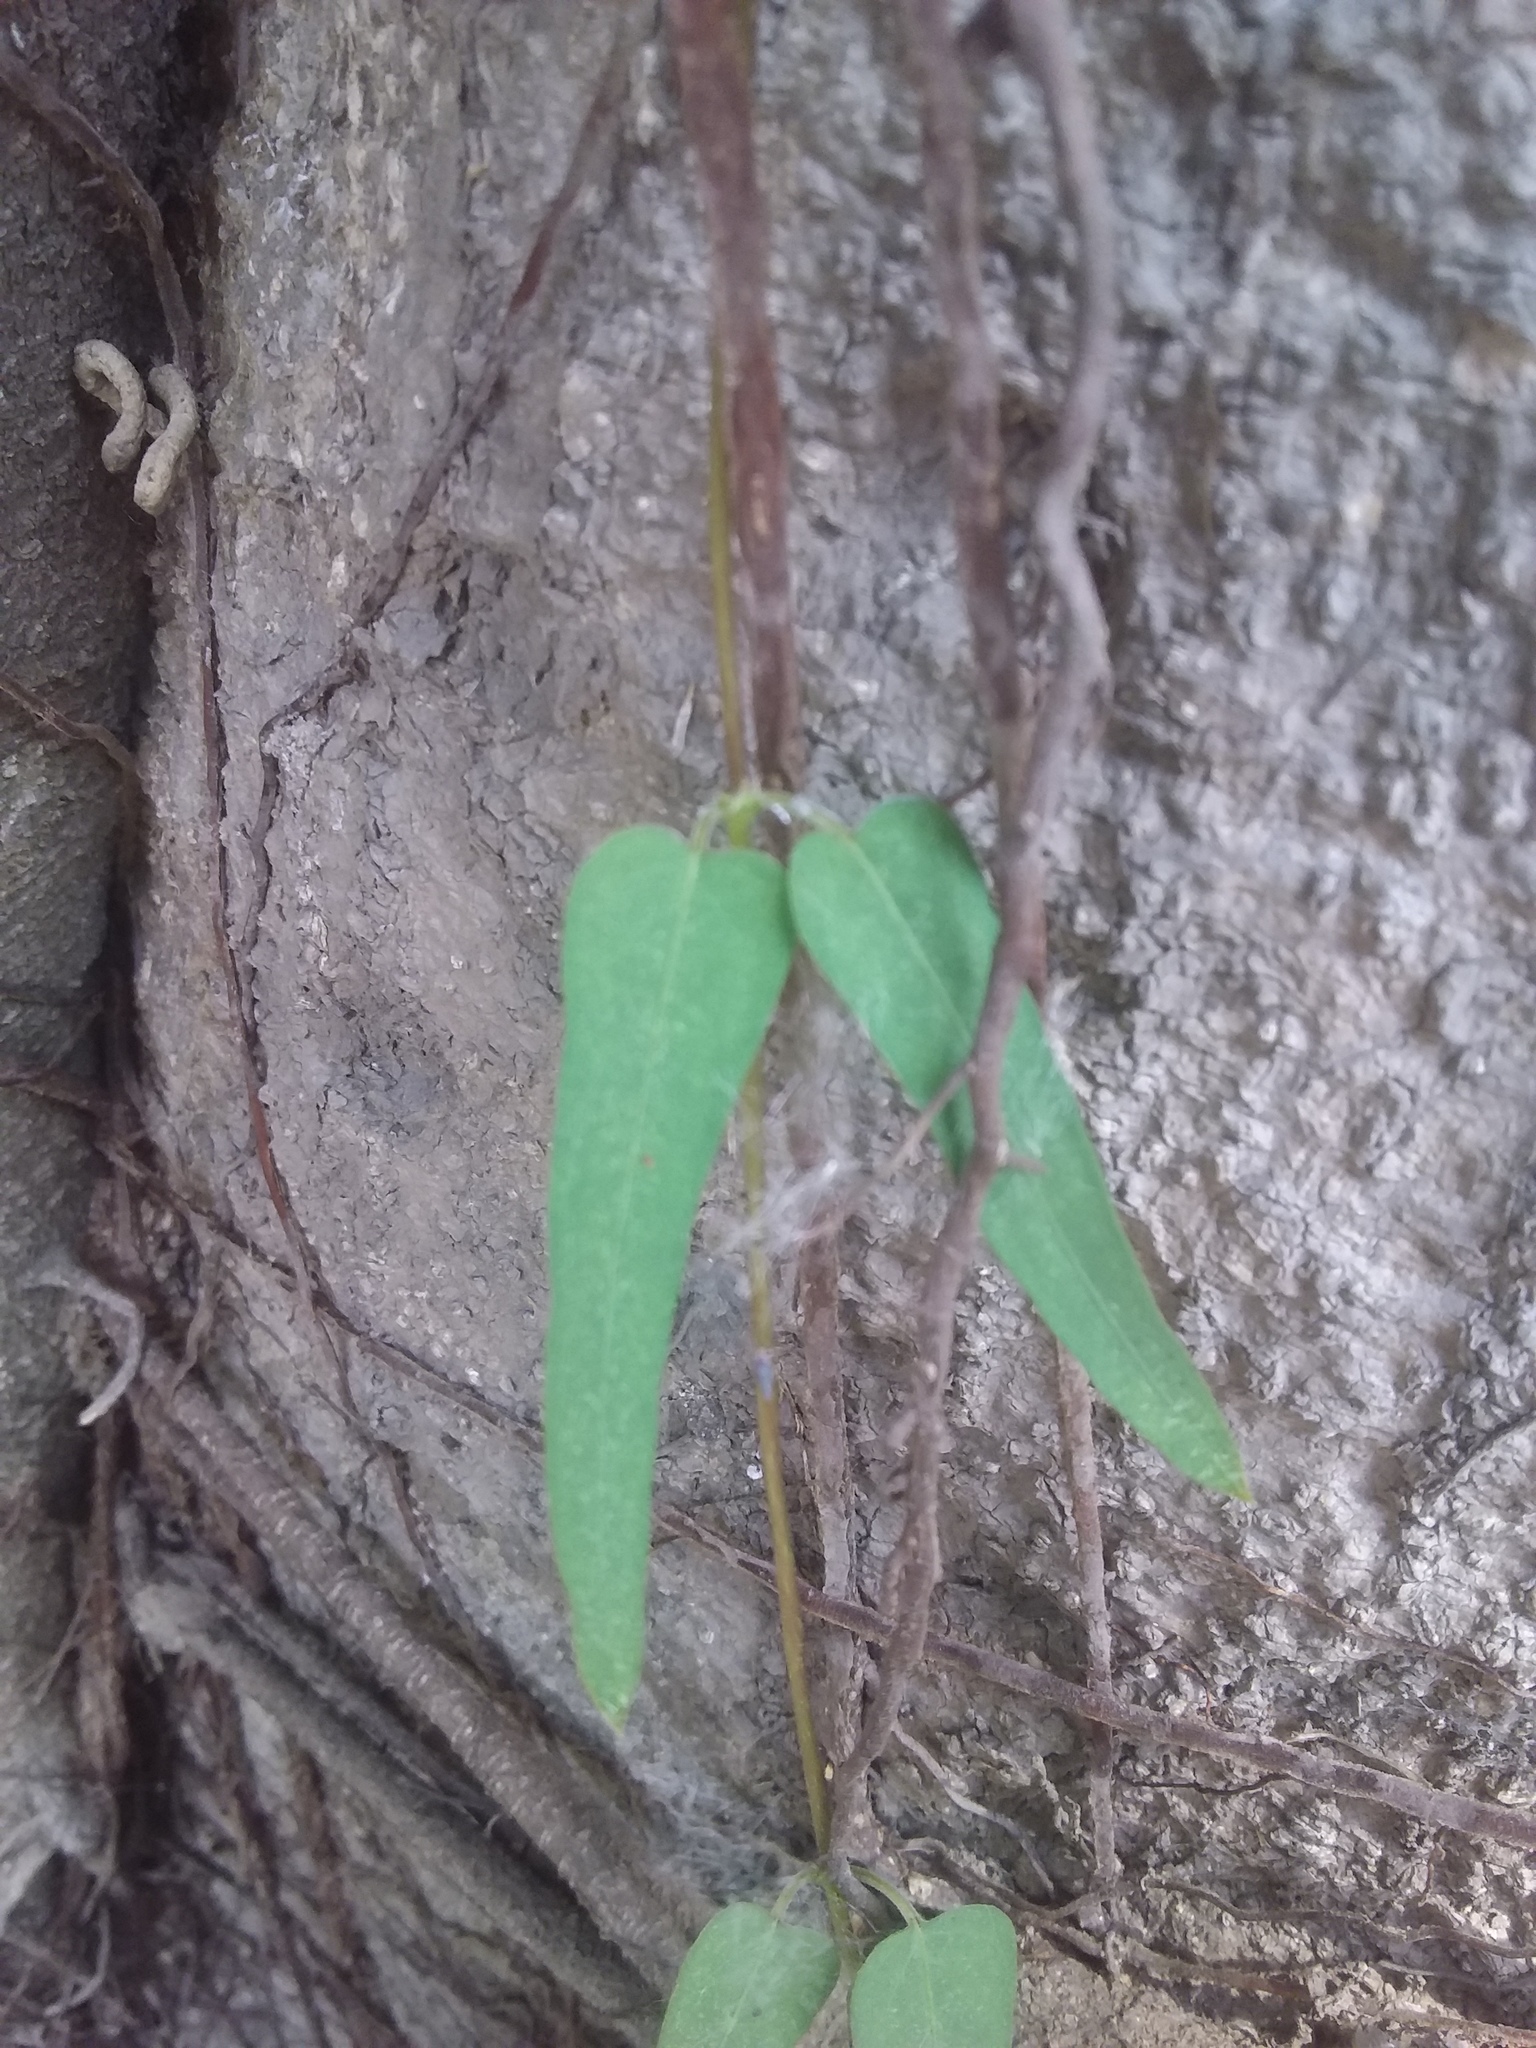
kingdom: Plantae
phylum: Tracheophyta
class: Magnoliopsida
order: Gentianales
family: Rubiaceae
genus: Paederia
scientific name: Paederia foetida
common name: Stinkvine
